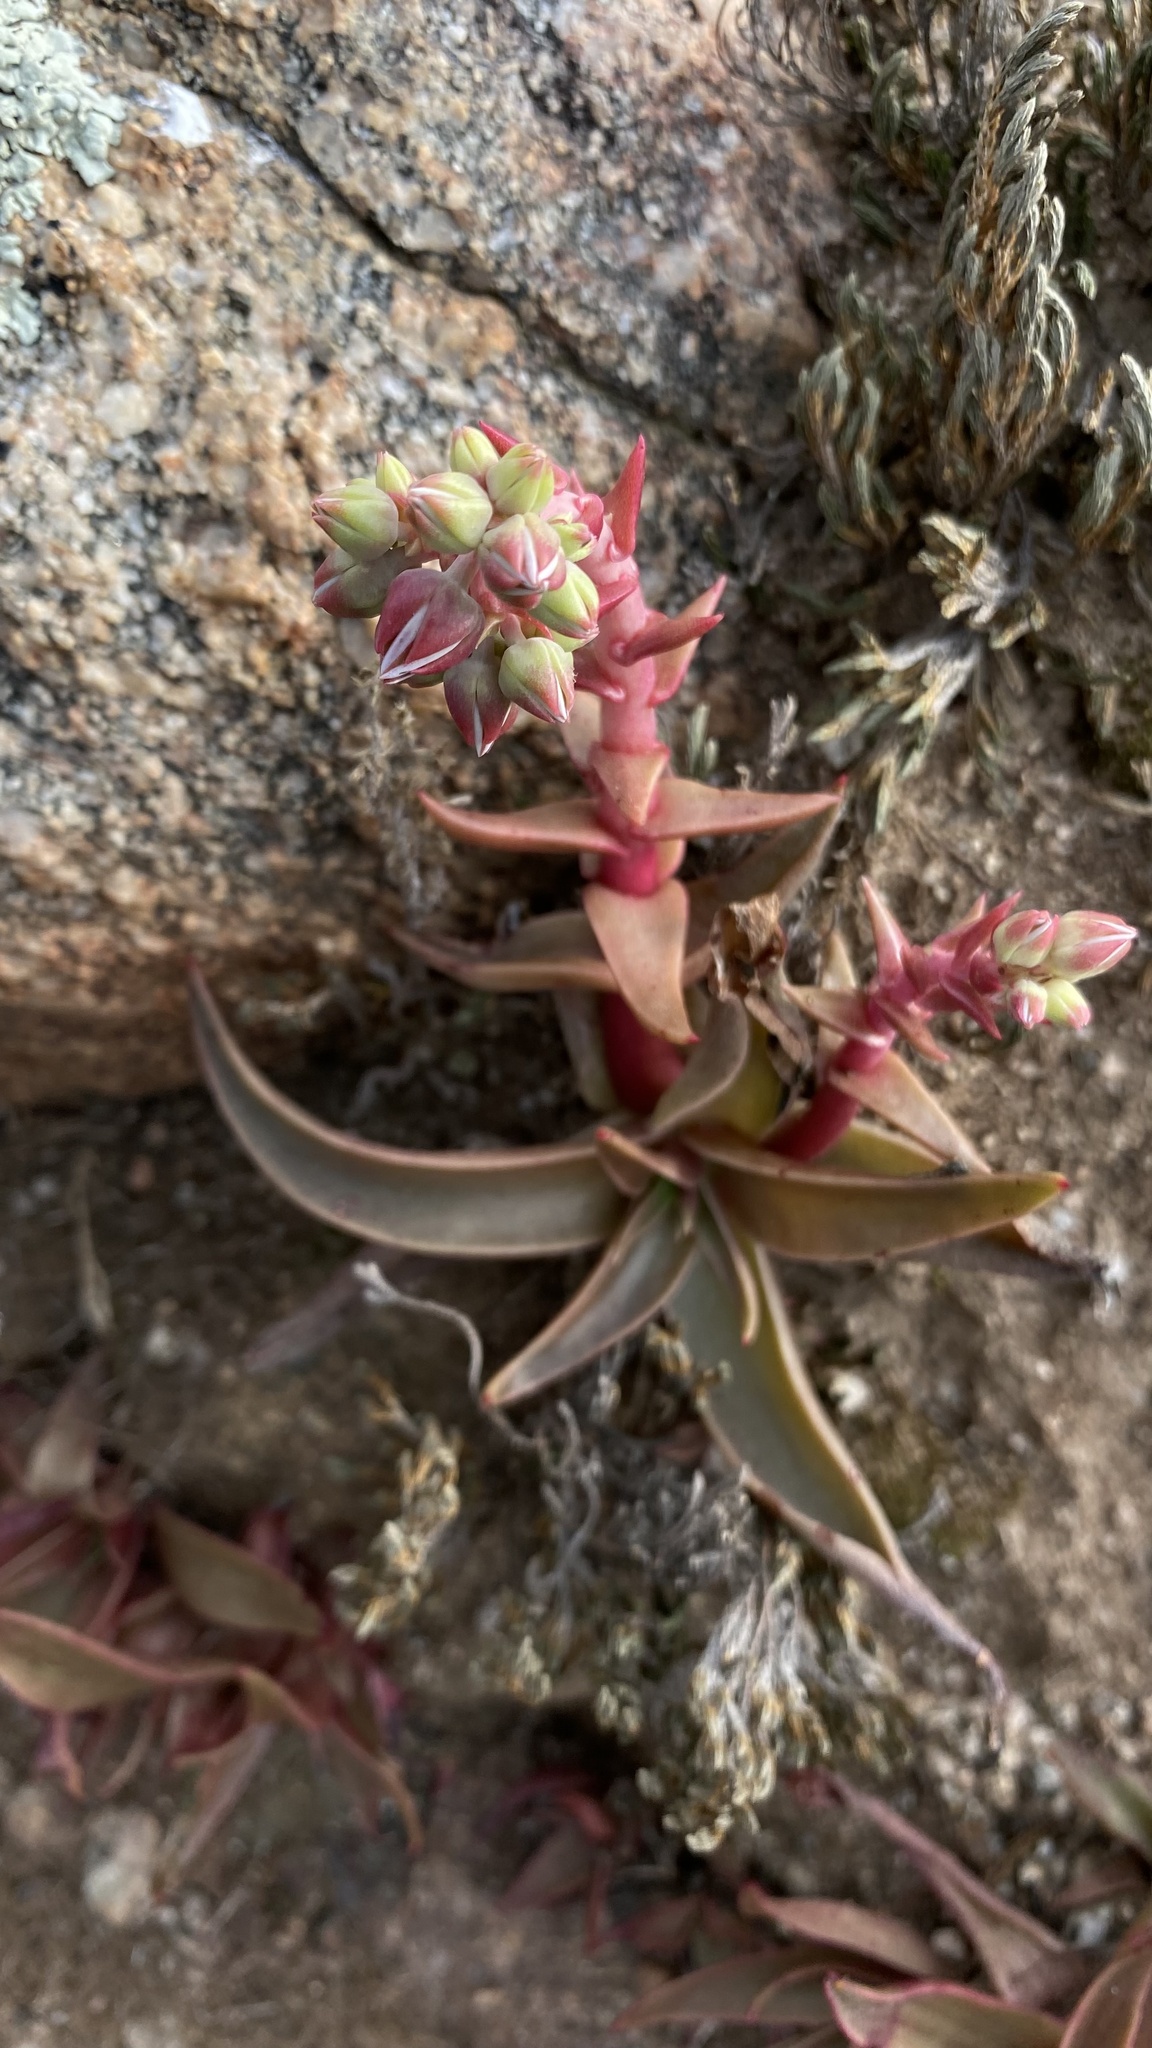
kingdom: Plantae
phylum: Tracheophyta
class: Magnoliopsida
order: Saxifragales
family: Crassulaceae
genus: Dudleya
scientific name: Dudleya lanceolata
